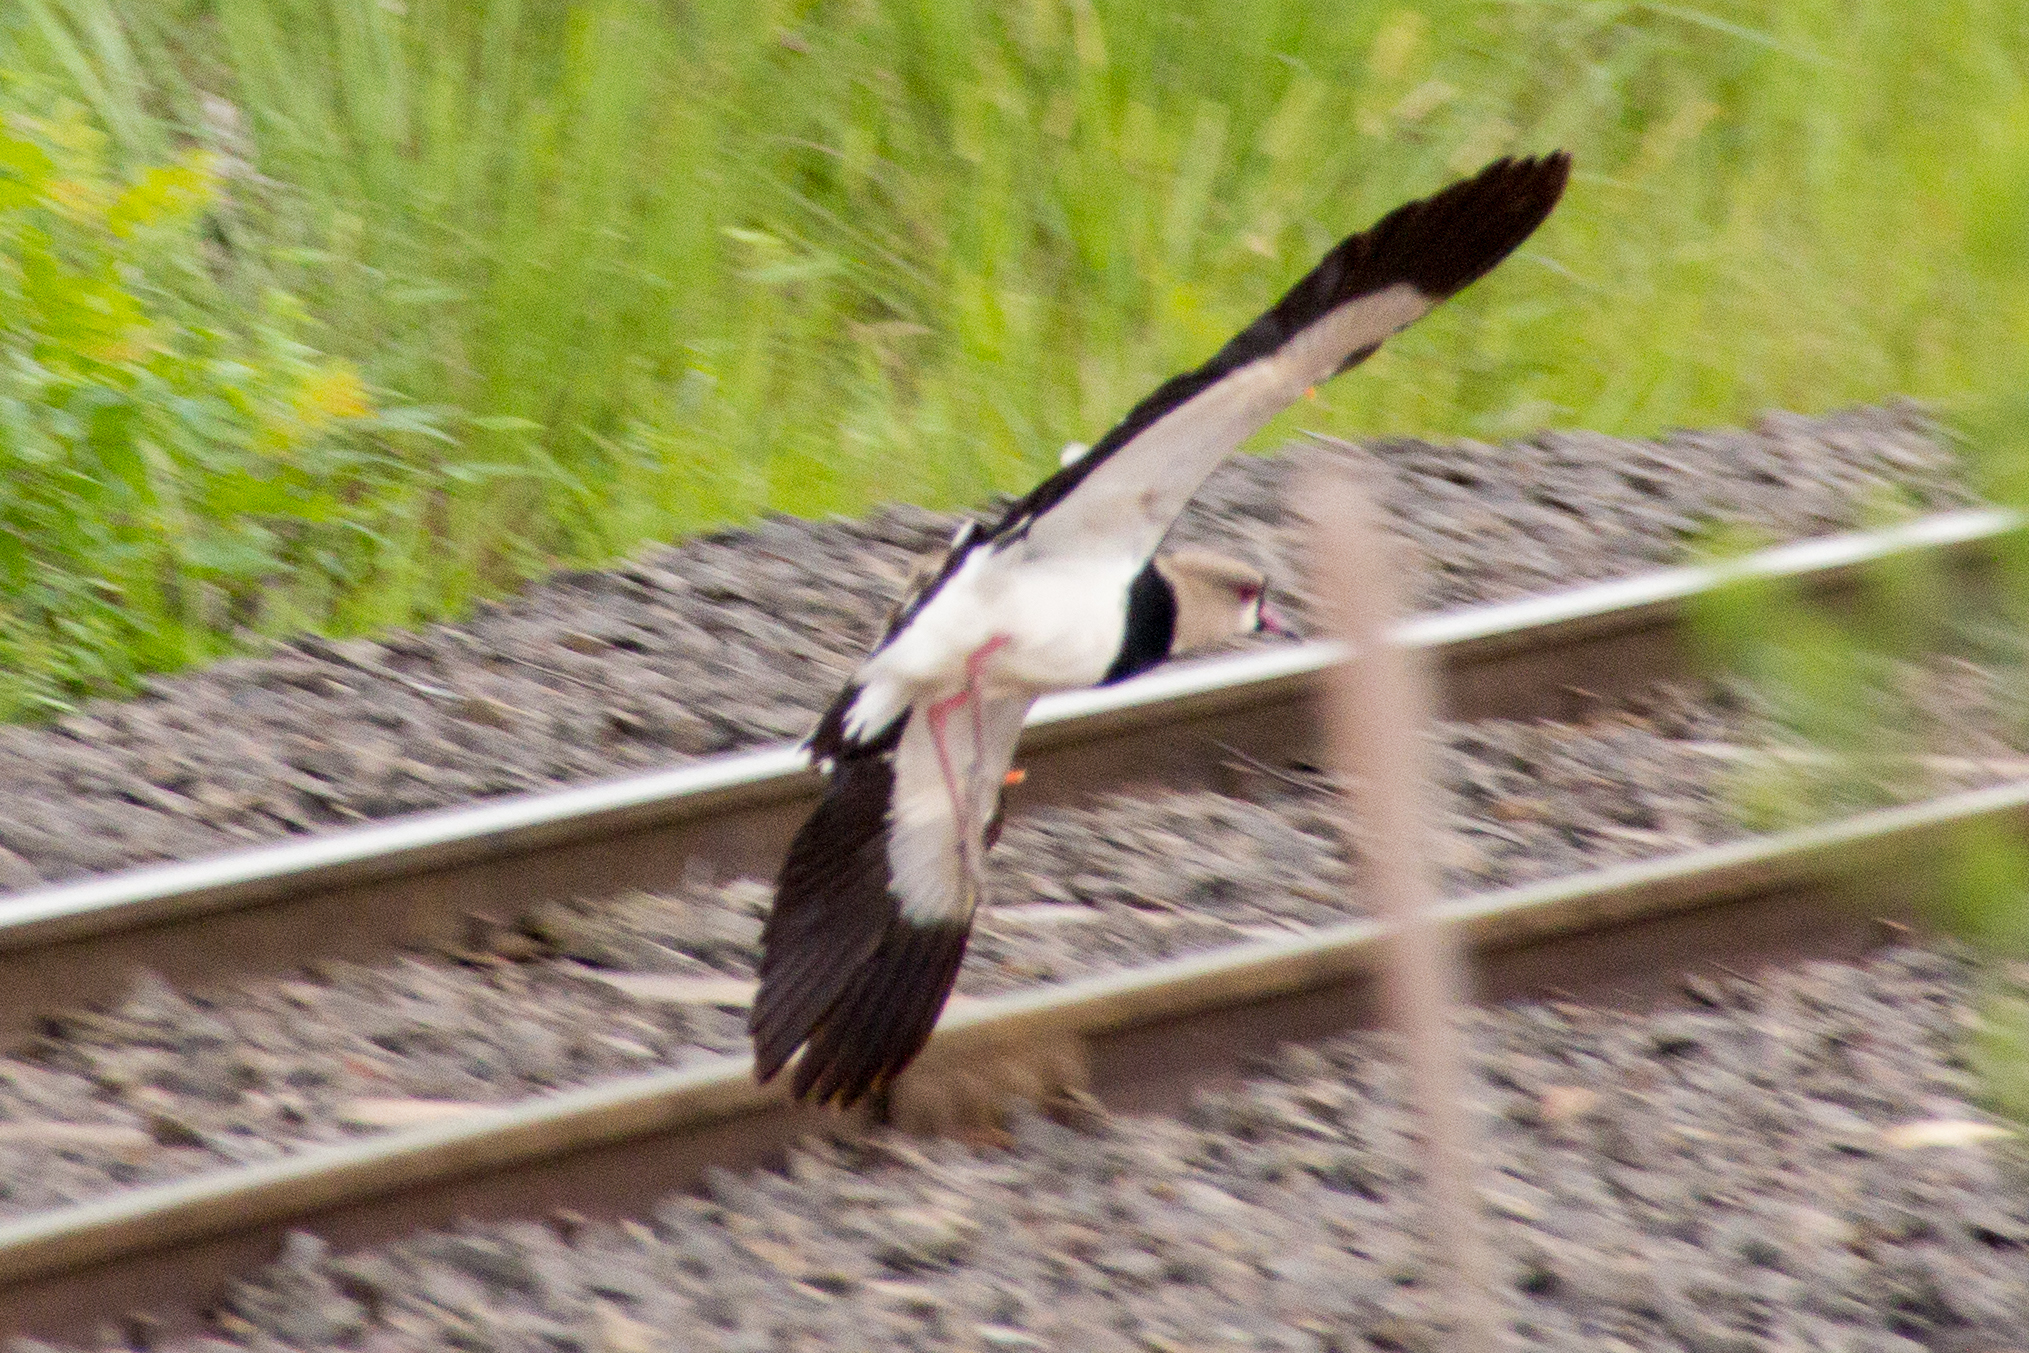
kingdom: Animalia
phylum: Chordata
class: Aves
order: Charadriiformes
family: Charadriidae
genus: Vanellus
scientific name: Vanellus chilensis
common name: Southern lapwing
